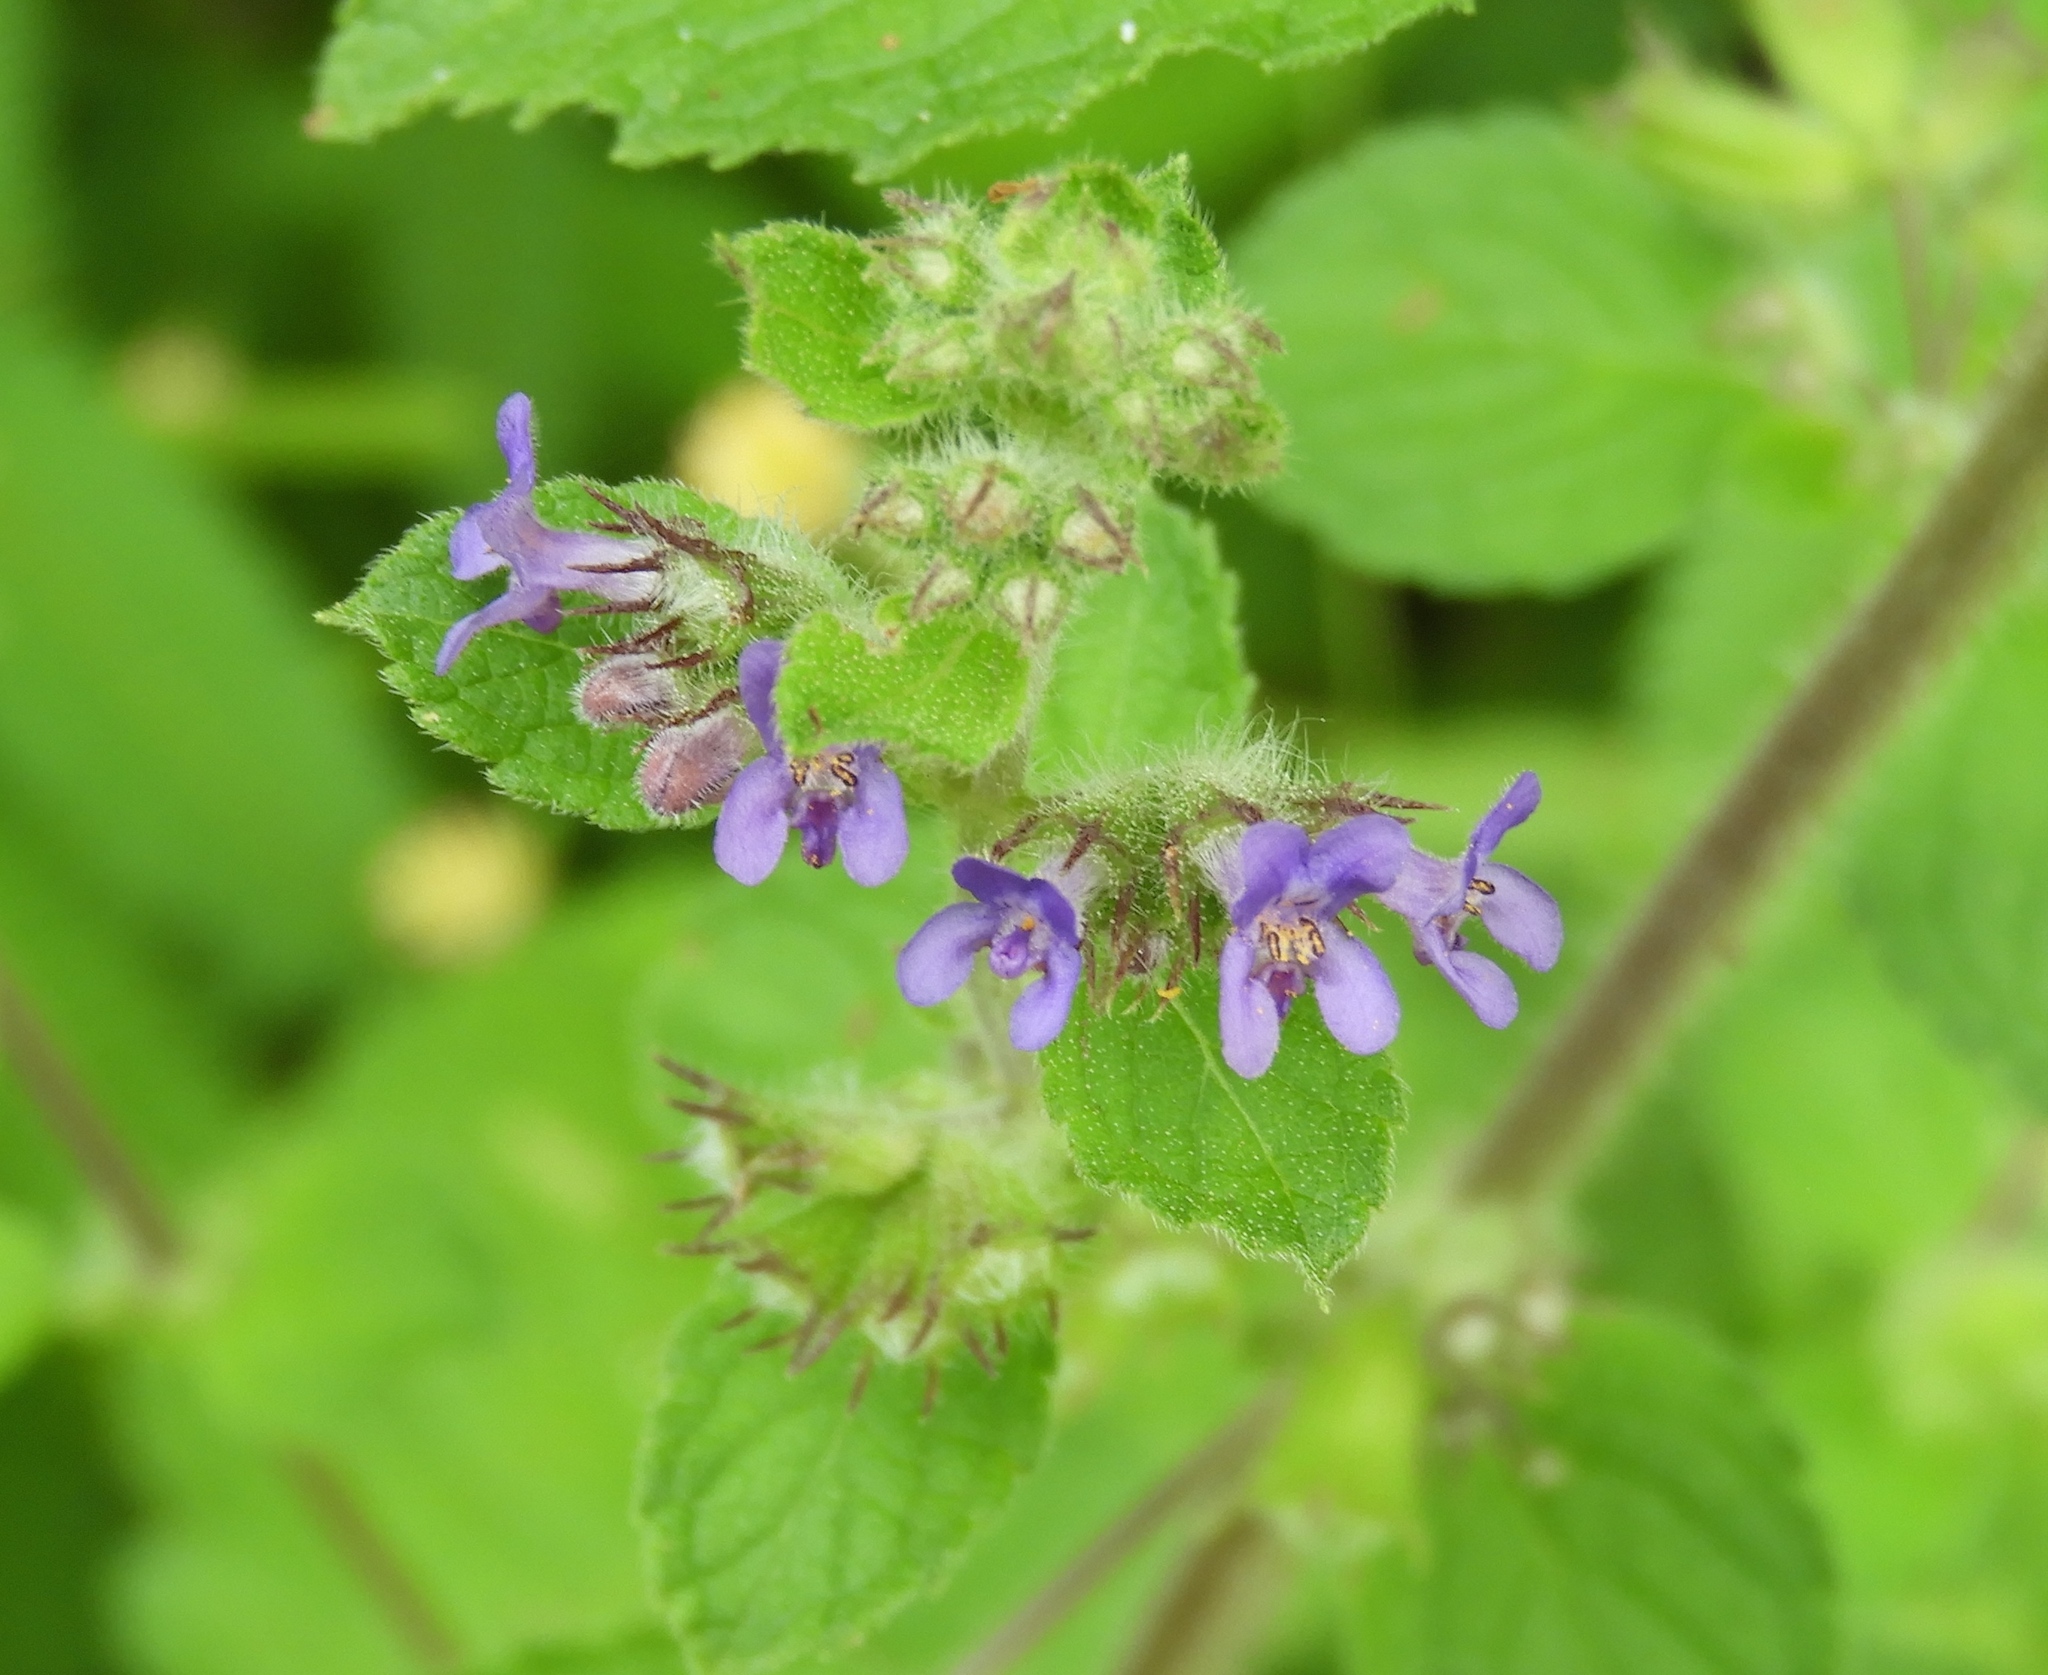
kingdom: Plantae
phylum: Tracheophyta
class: Magnoliopsida
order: Lamiales
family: Lamiaceae
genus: Mesosphaerum
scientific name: Mesosphaerum suaveolens
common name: Pignut
